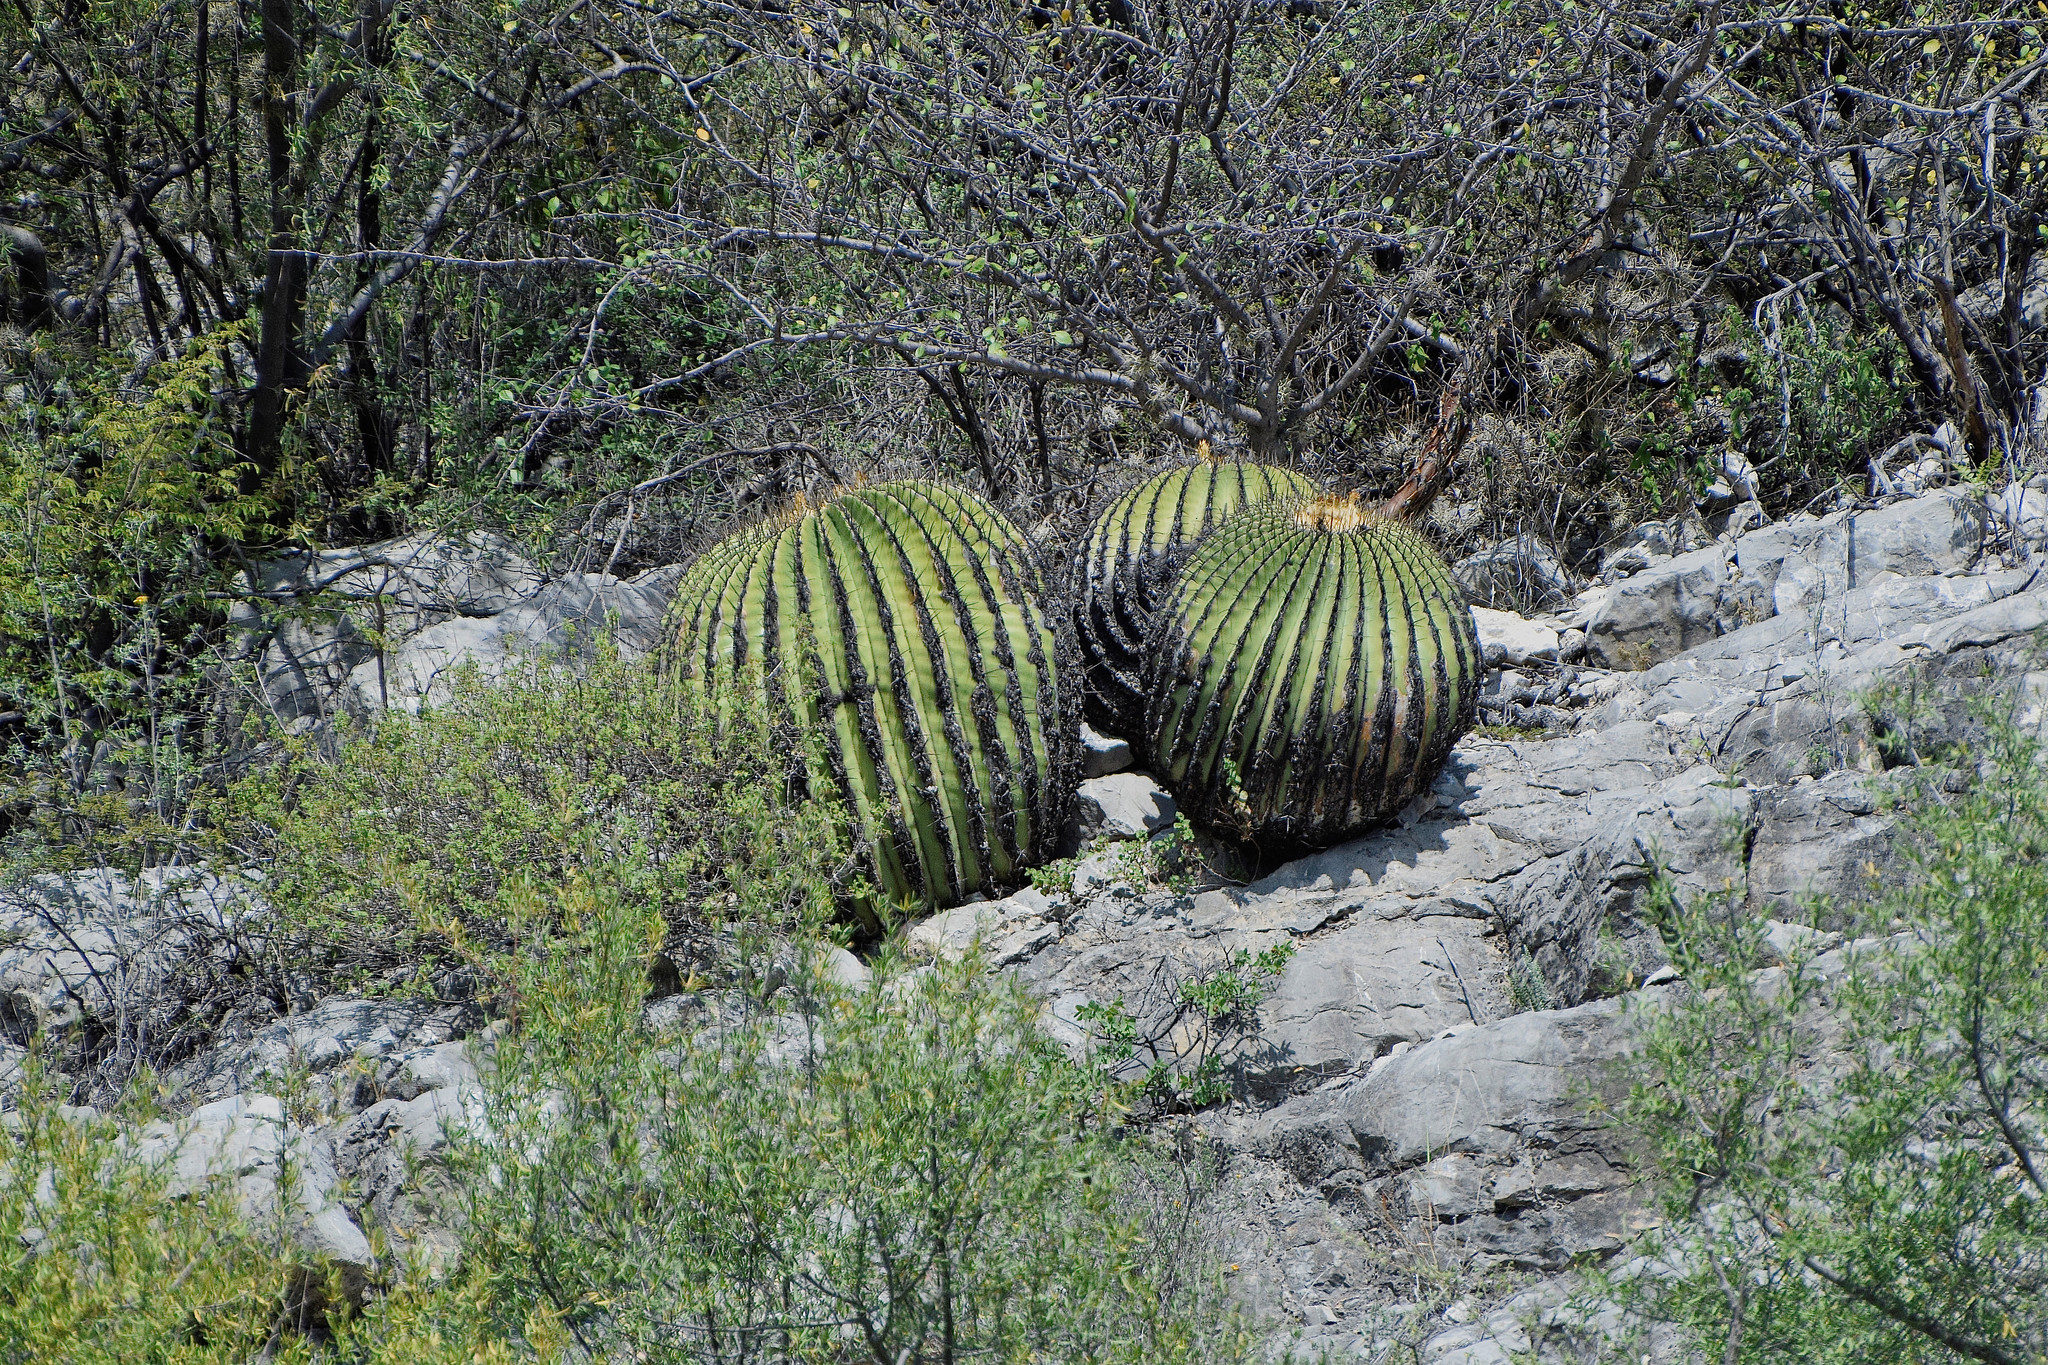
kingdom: Plantae
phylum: Tracheophyta
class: Magnoliopsida
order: Caryophyllales
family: Cactaceae
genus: Echinocactus
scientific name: Echinocactus platyacanthus
